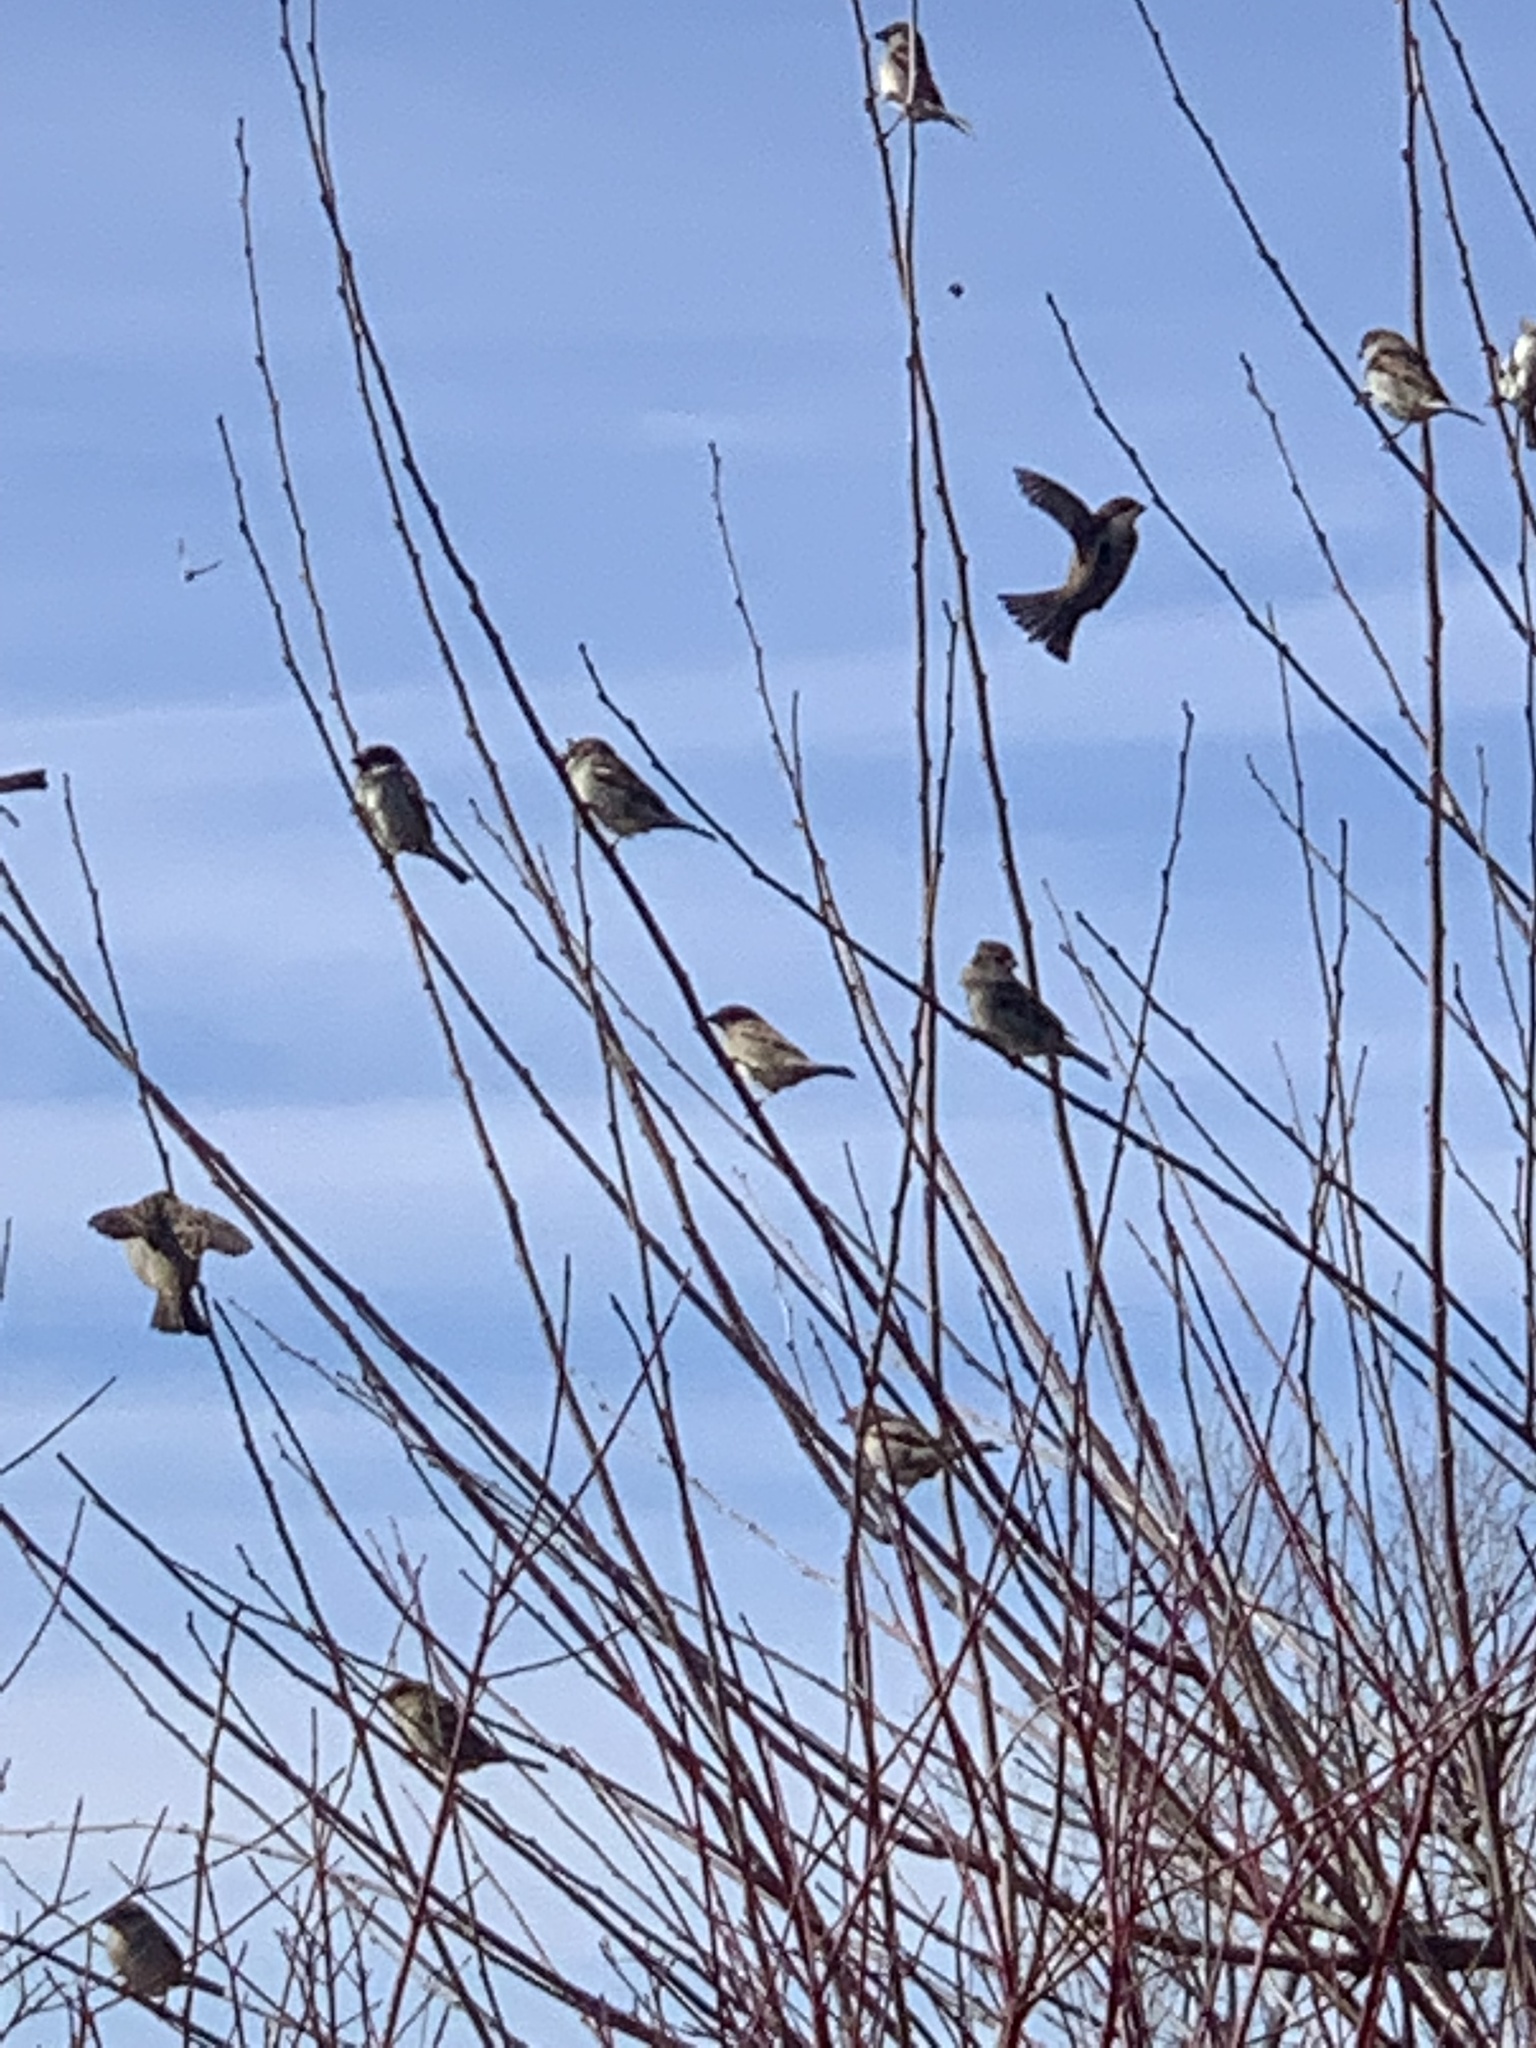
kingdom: Animalia
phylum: Chordata
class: Aves
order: Passeriformes
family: Passeridae
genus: Passer
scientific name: Passer domesticus
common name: House sparrow
